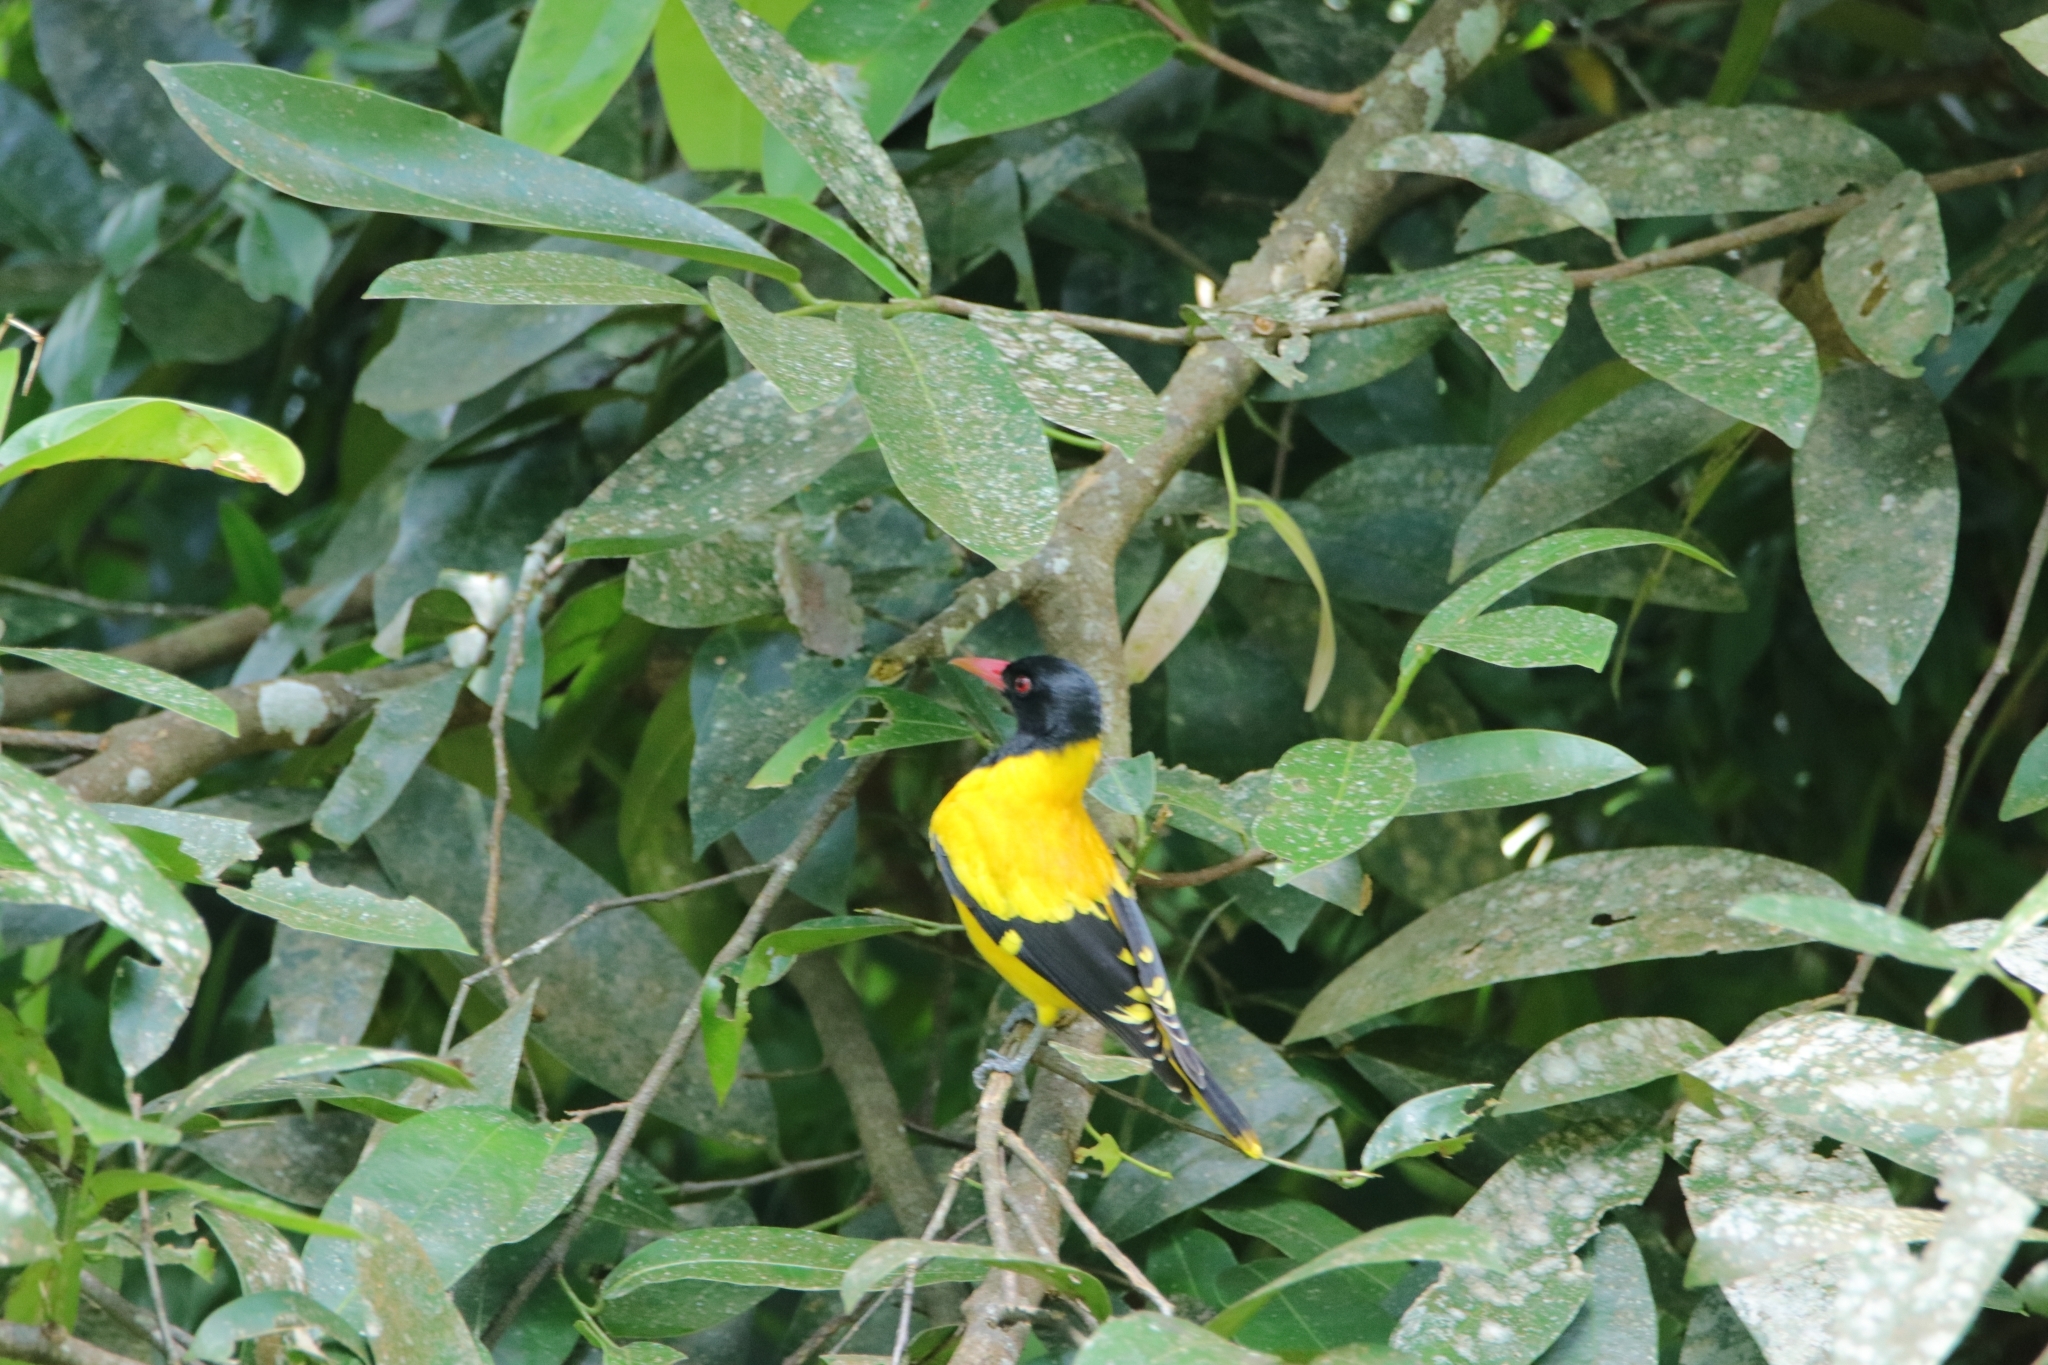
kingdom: Animalia
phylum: Chordata
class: Aves
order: Passeriformes
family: Oriolidae
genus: Oriolus
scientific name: Oriolus xanthornus
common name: Black-hooded oriole
